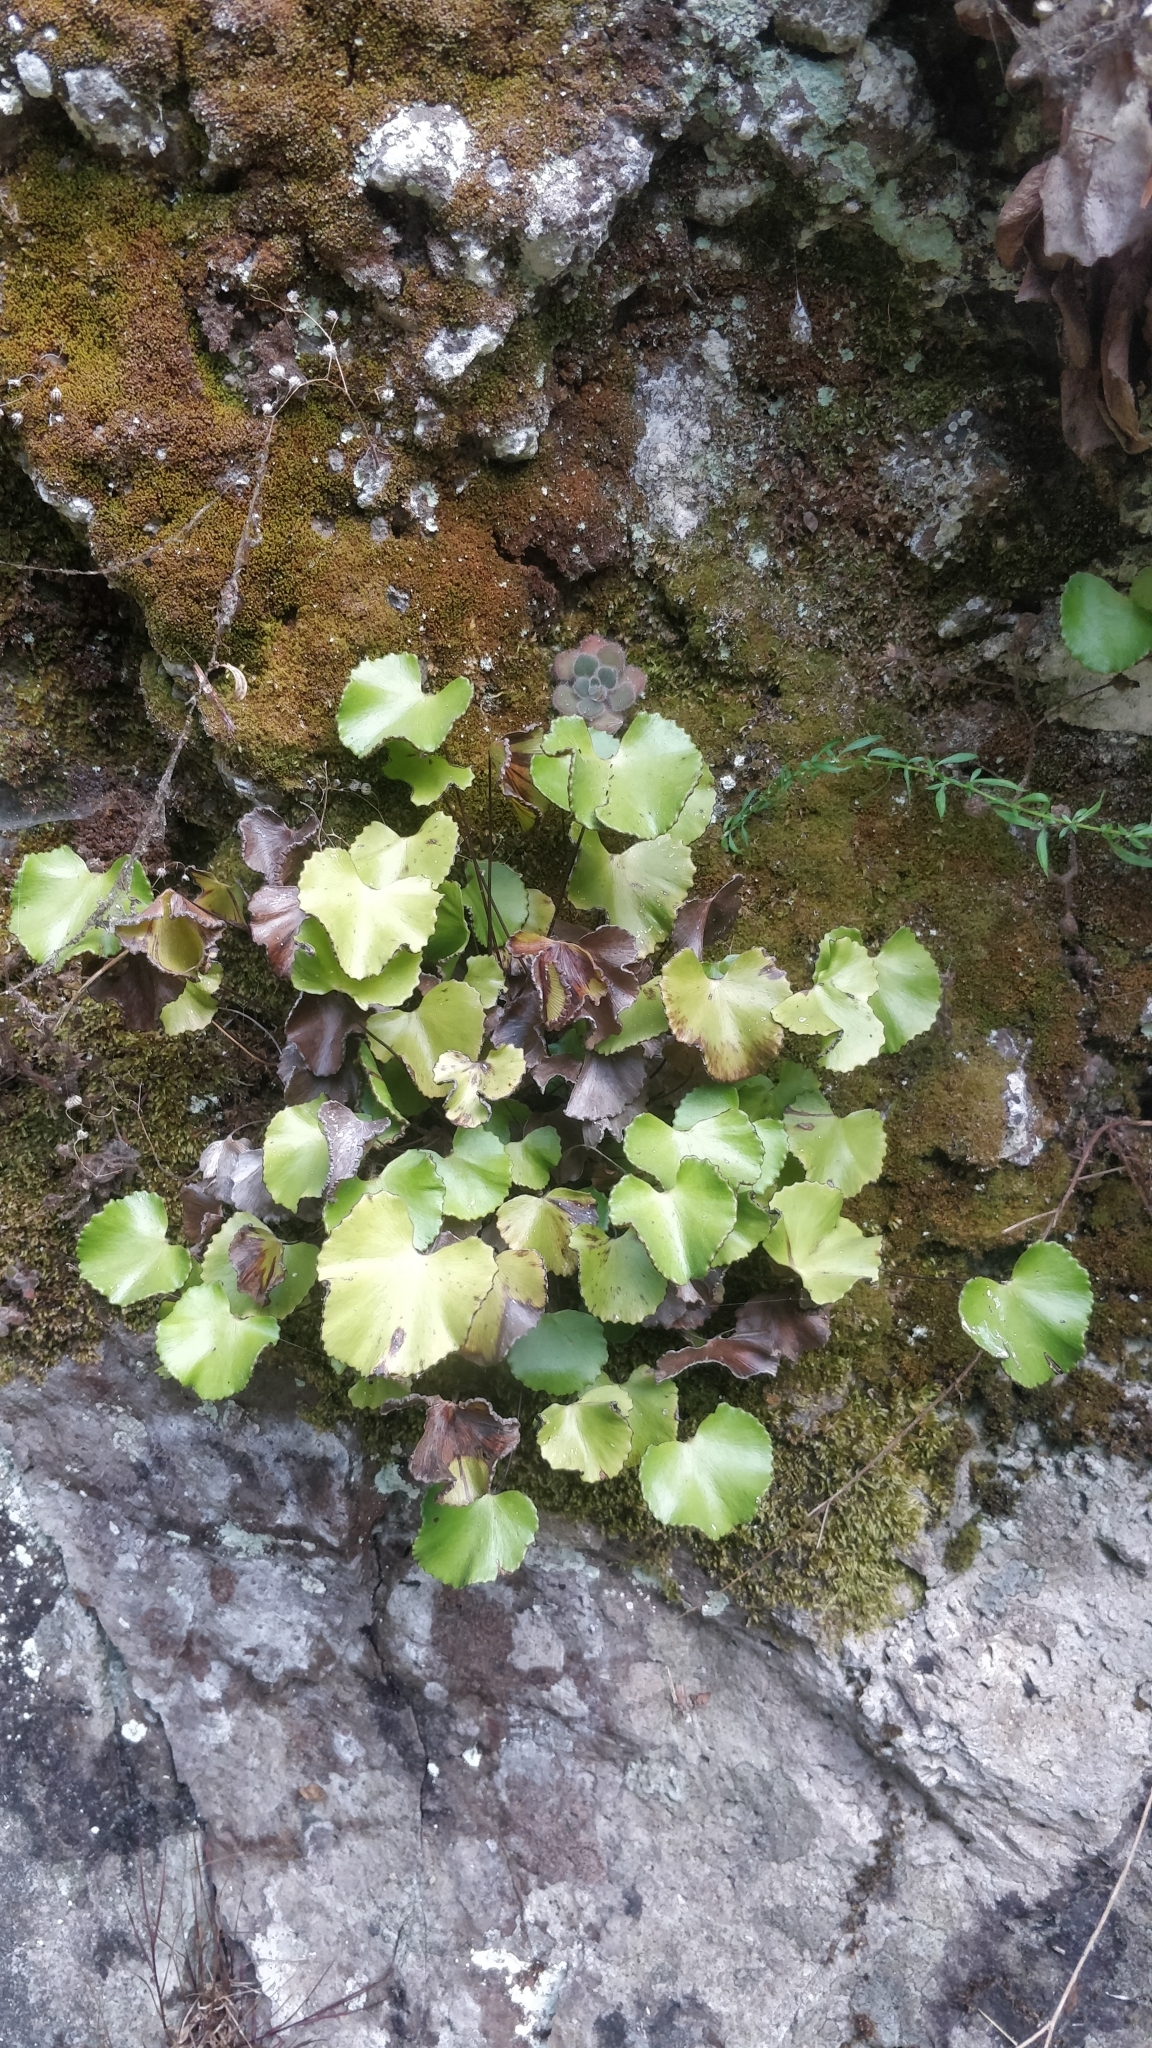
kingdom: Plantae
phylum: Tracheophyta
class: Polypodiopsida
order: Polypodiales
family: Pteridaceae
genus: Adiantum
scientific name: Adiantum reniforme
